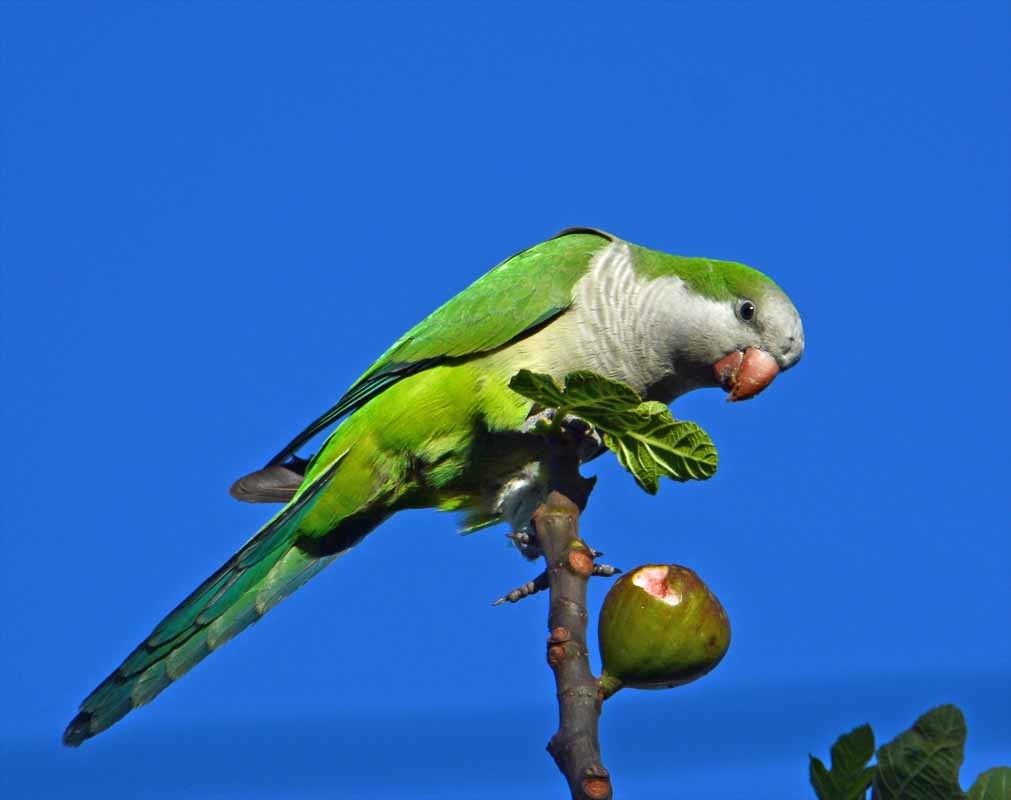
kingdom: Animalia
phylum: Chordata
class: Aves
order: Psittaciformes
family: Psittacidae
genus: Myiopsitta
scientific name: Myiopsitta monachus
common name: Monk parakeet
